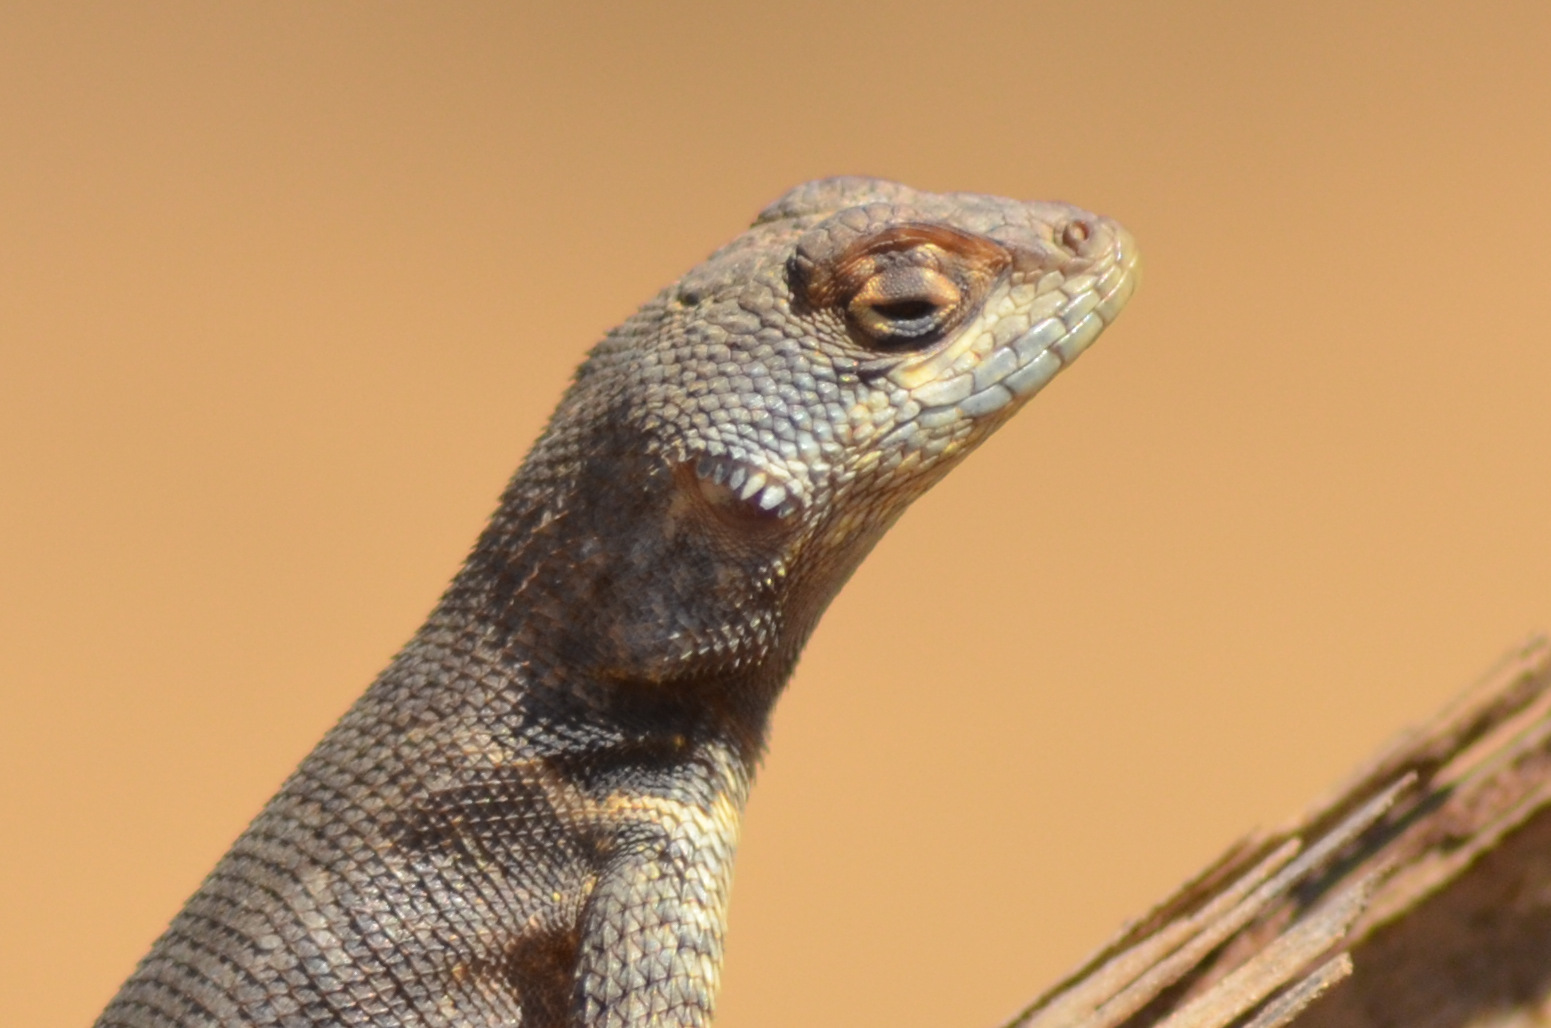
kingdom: Animalia
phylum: Chordata
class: Squamata
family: Tropiduridae
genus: Tropidurus
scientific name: Tropidurus hispidus
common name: Peters' lava lizard
